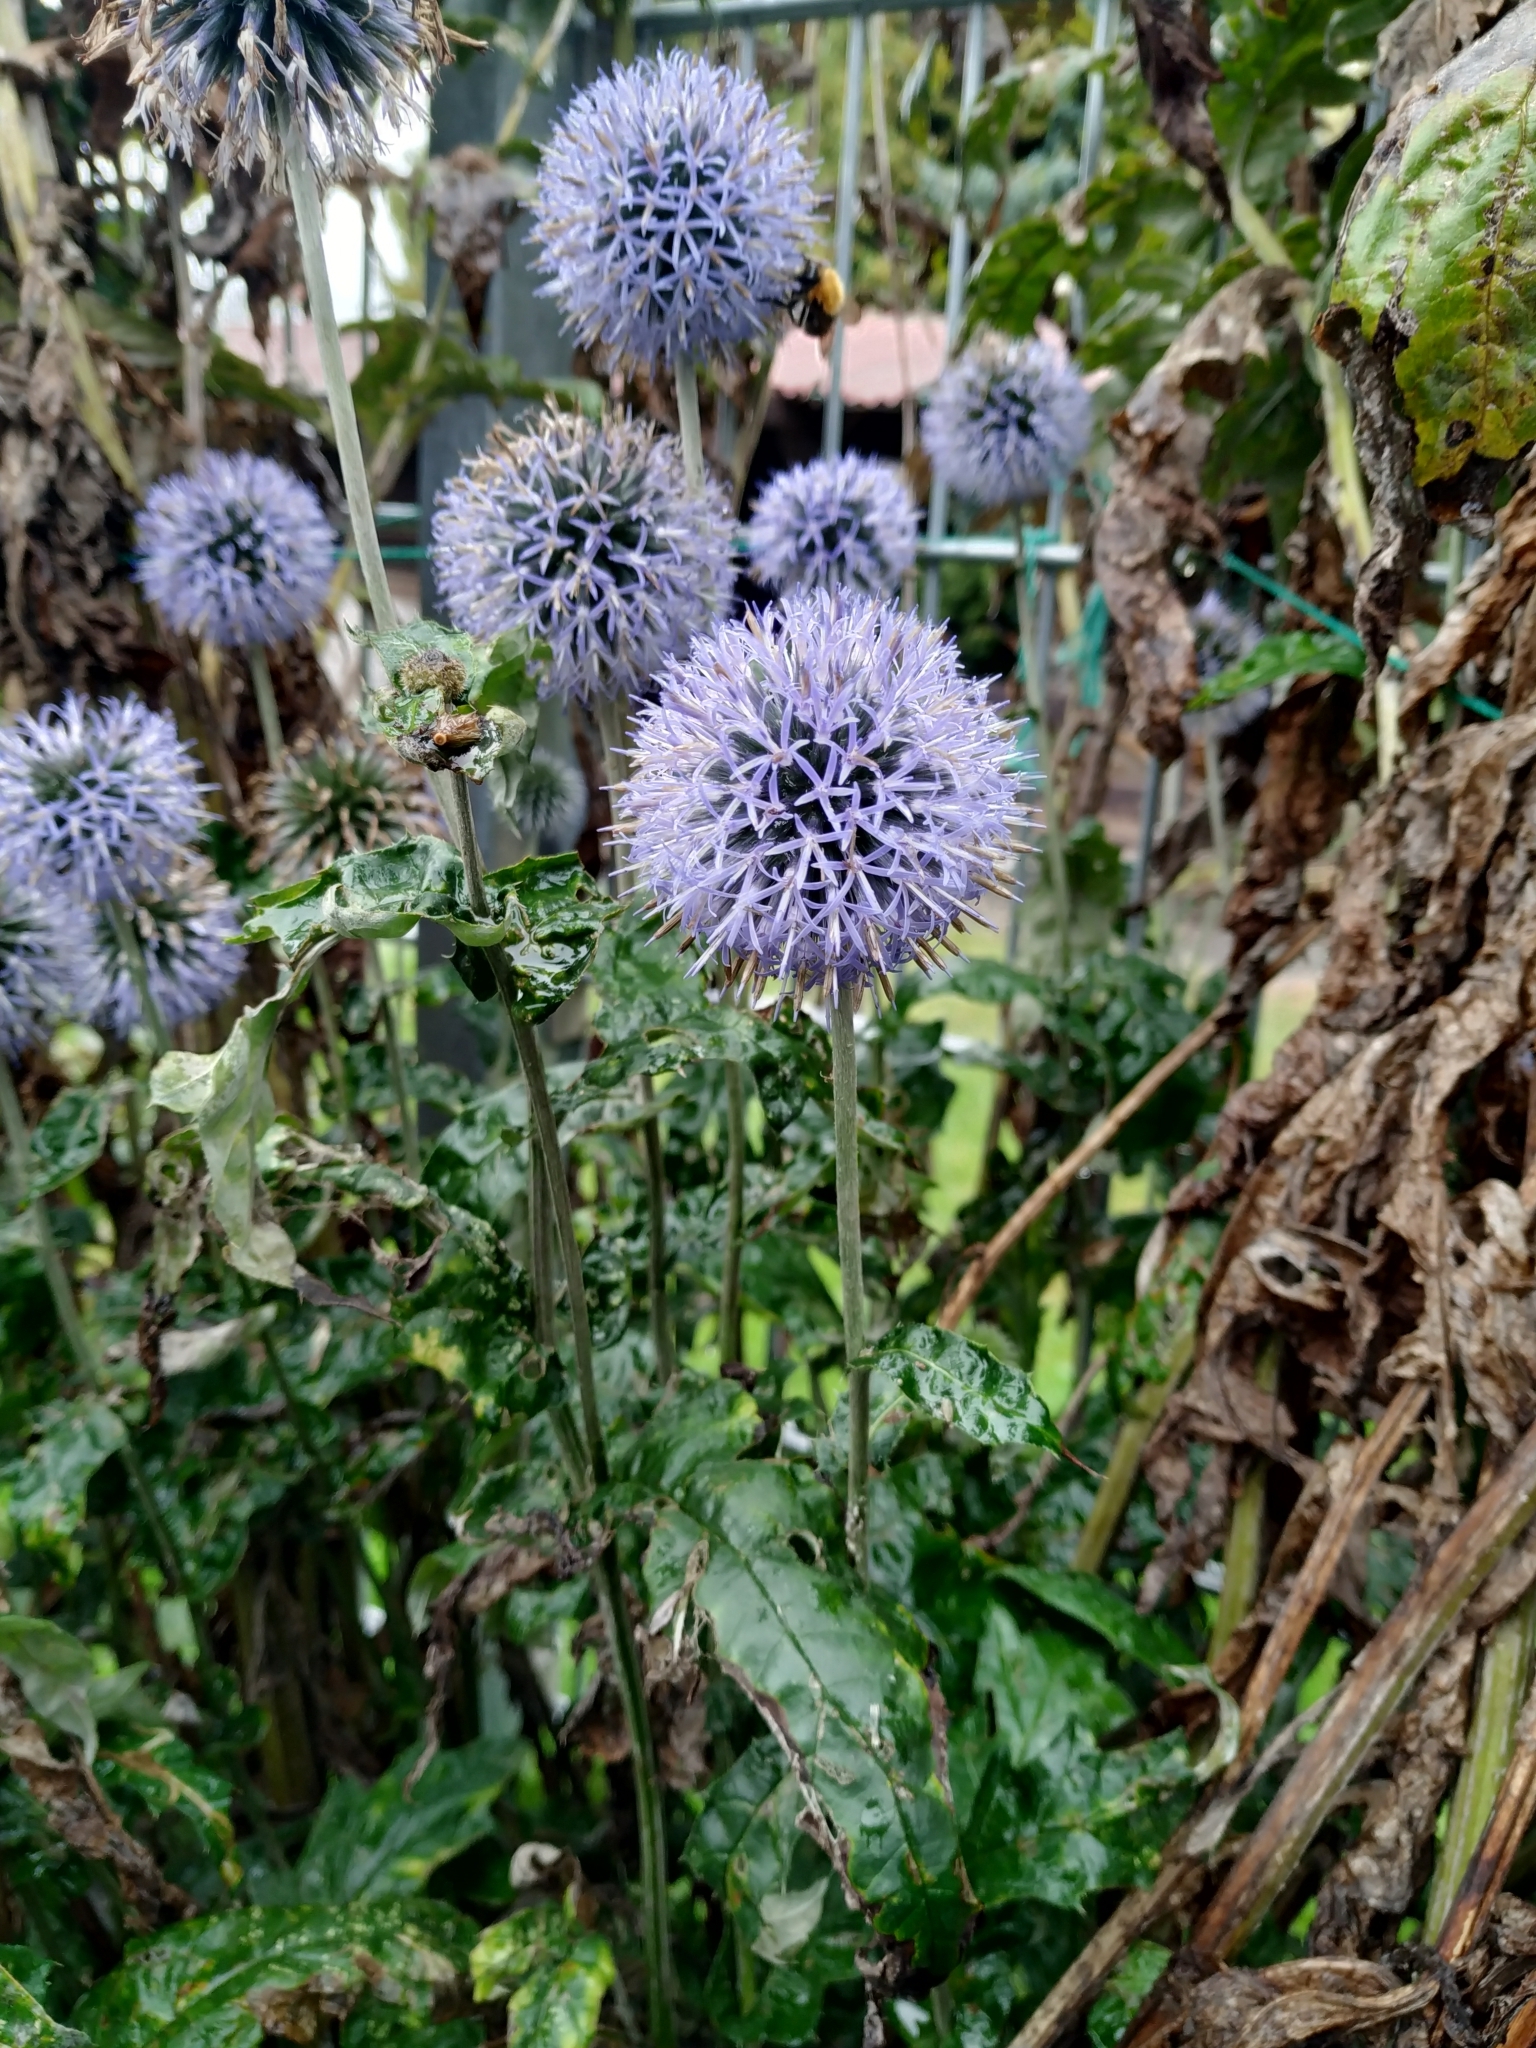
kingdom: Plantae
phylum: Tracheophyta
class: Magnoliopsida
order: Asterales
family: Asteraceae
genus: Echinops
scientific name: Echinops bannaticus
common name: Blue globe-thistle
